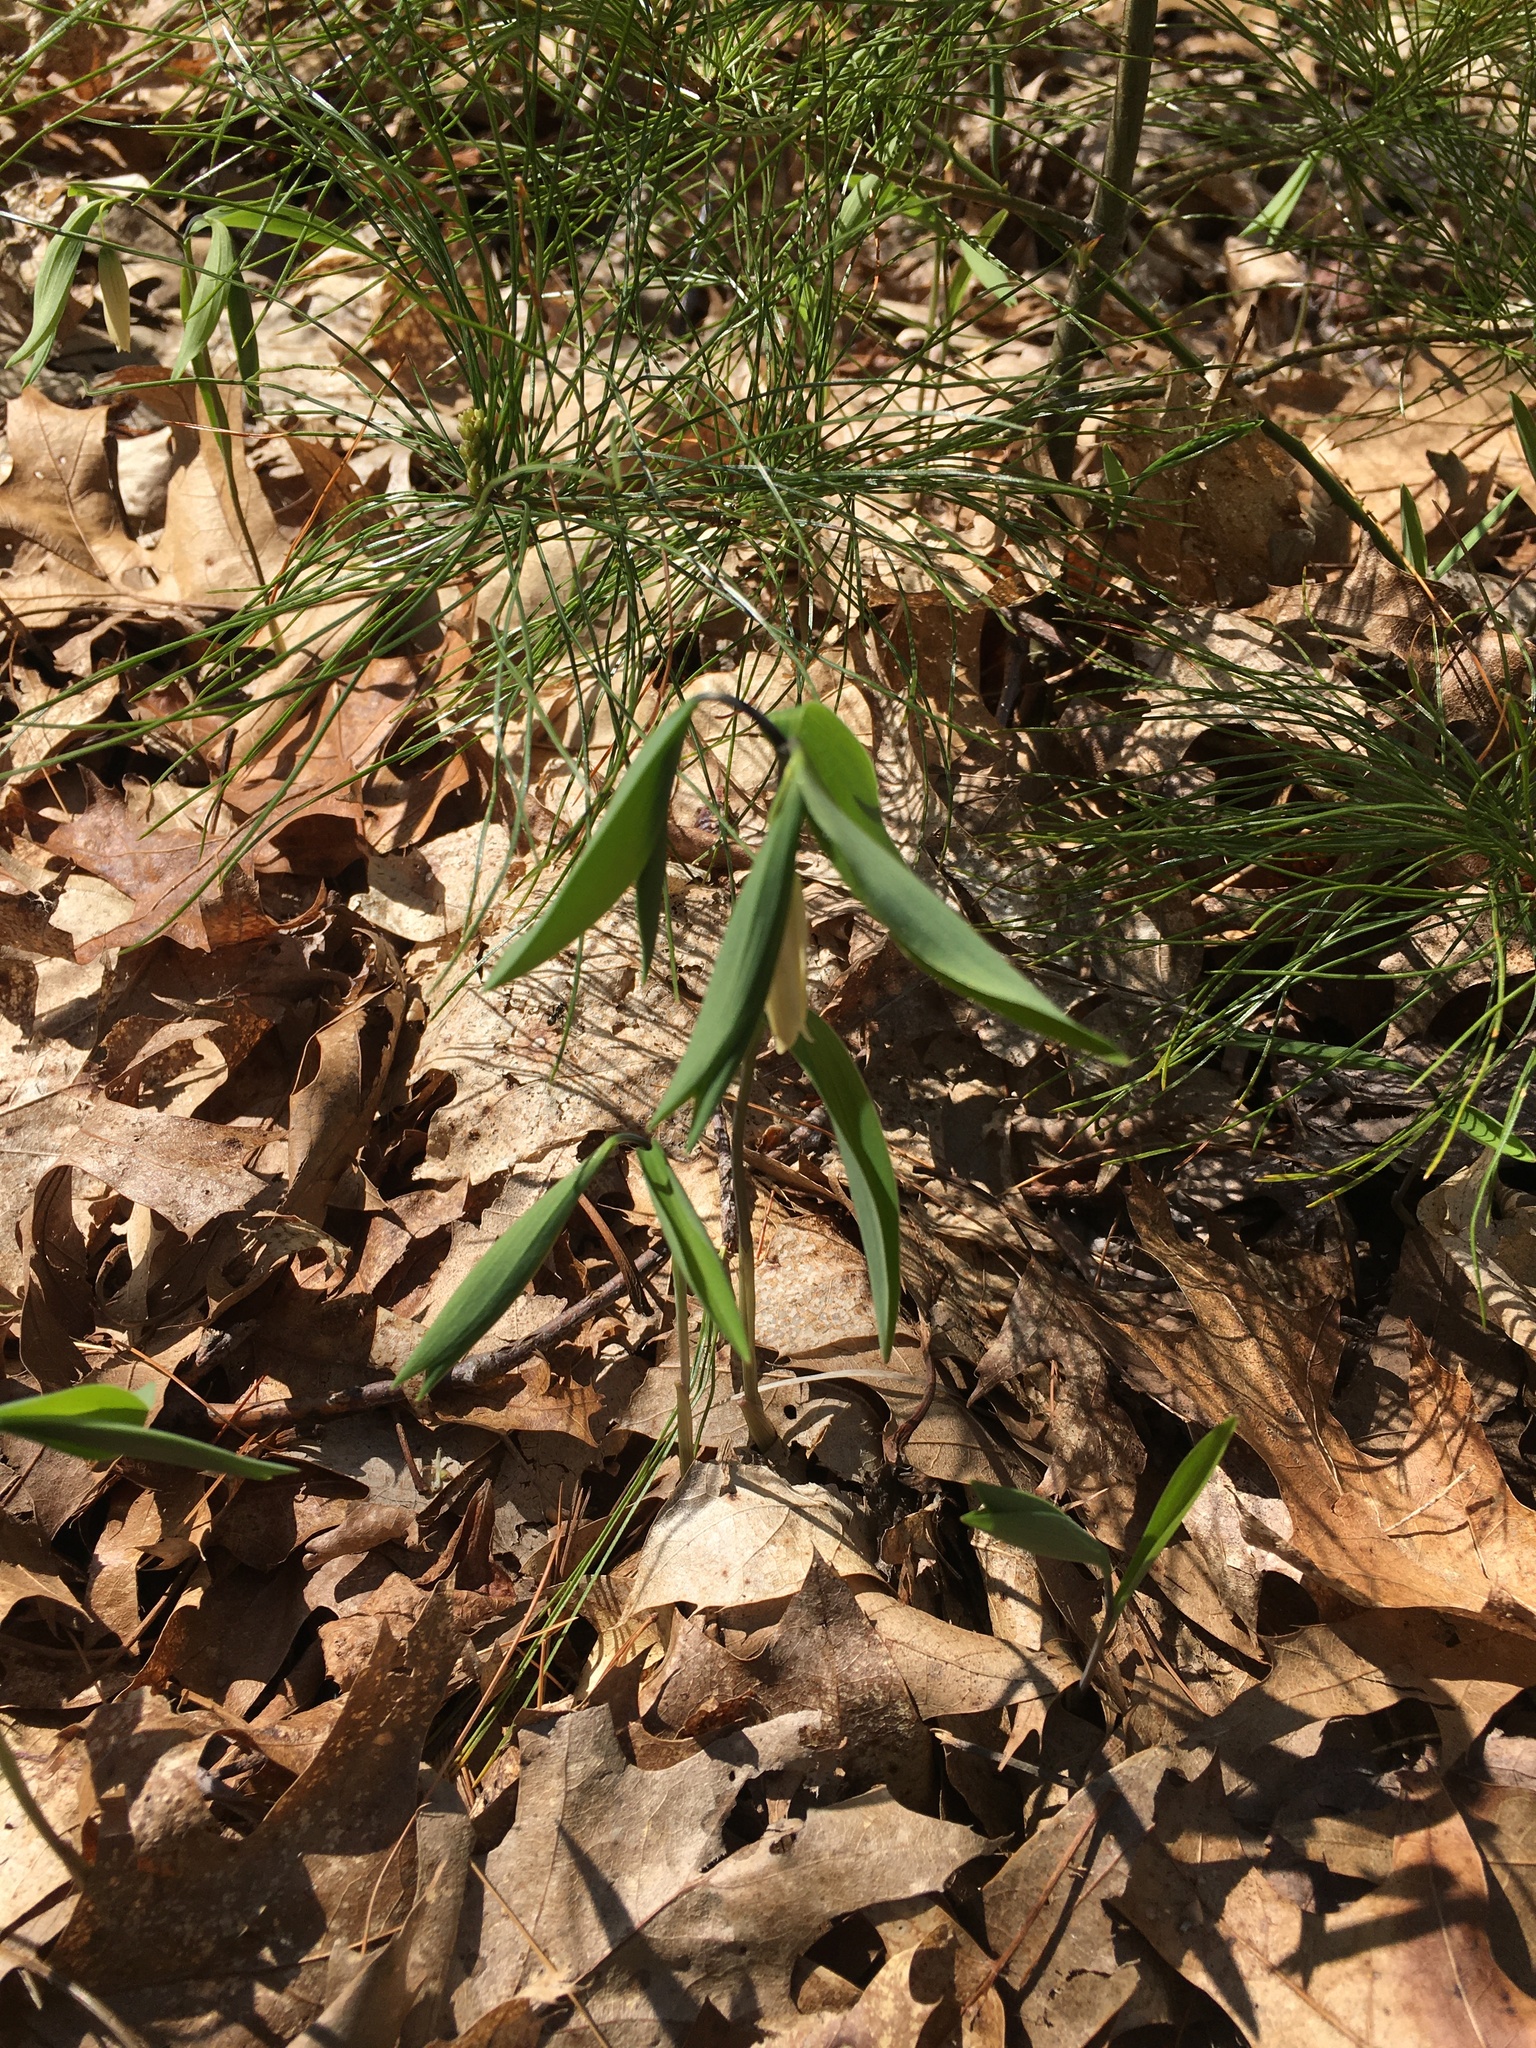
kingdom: Plantae
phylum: Tracheophyta
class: Liliopsida
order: Liliales
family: Colchicaceae
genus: Uvularia
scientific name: Uvularia sessilifolia
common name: Straw-lily
